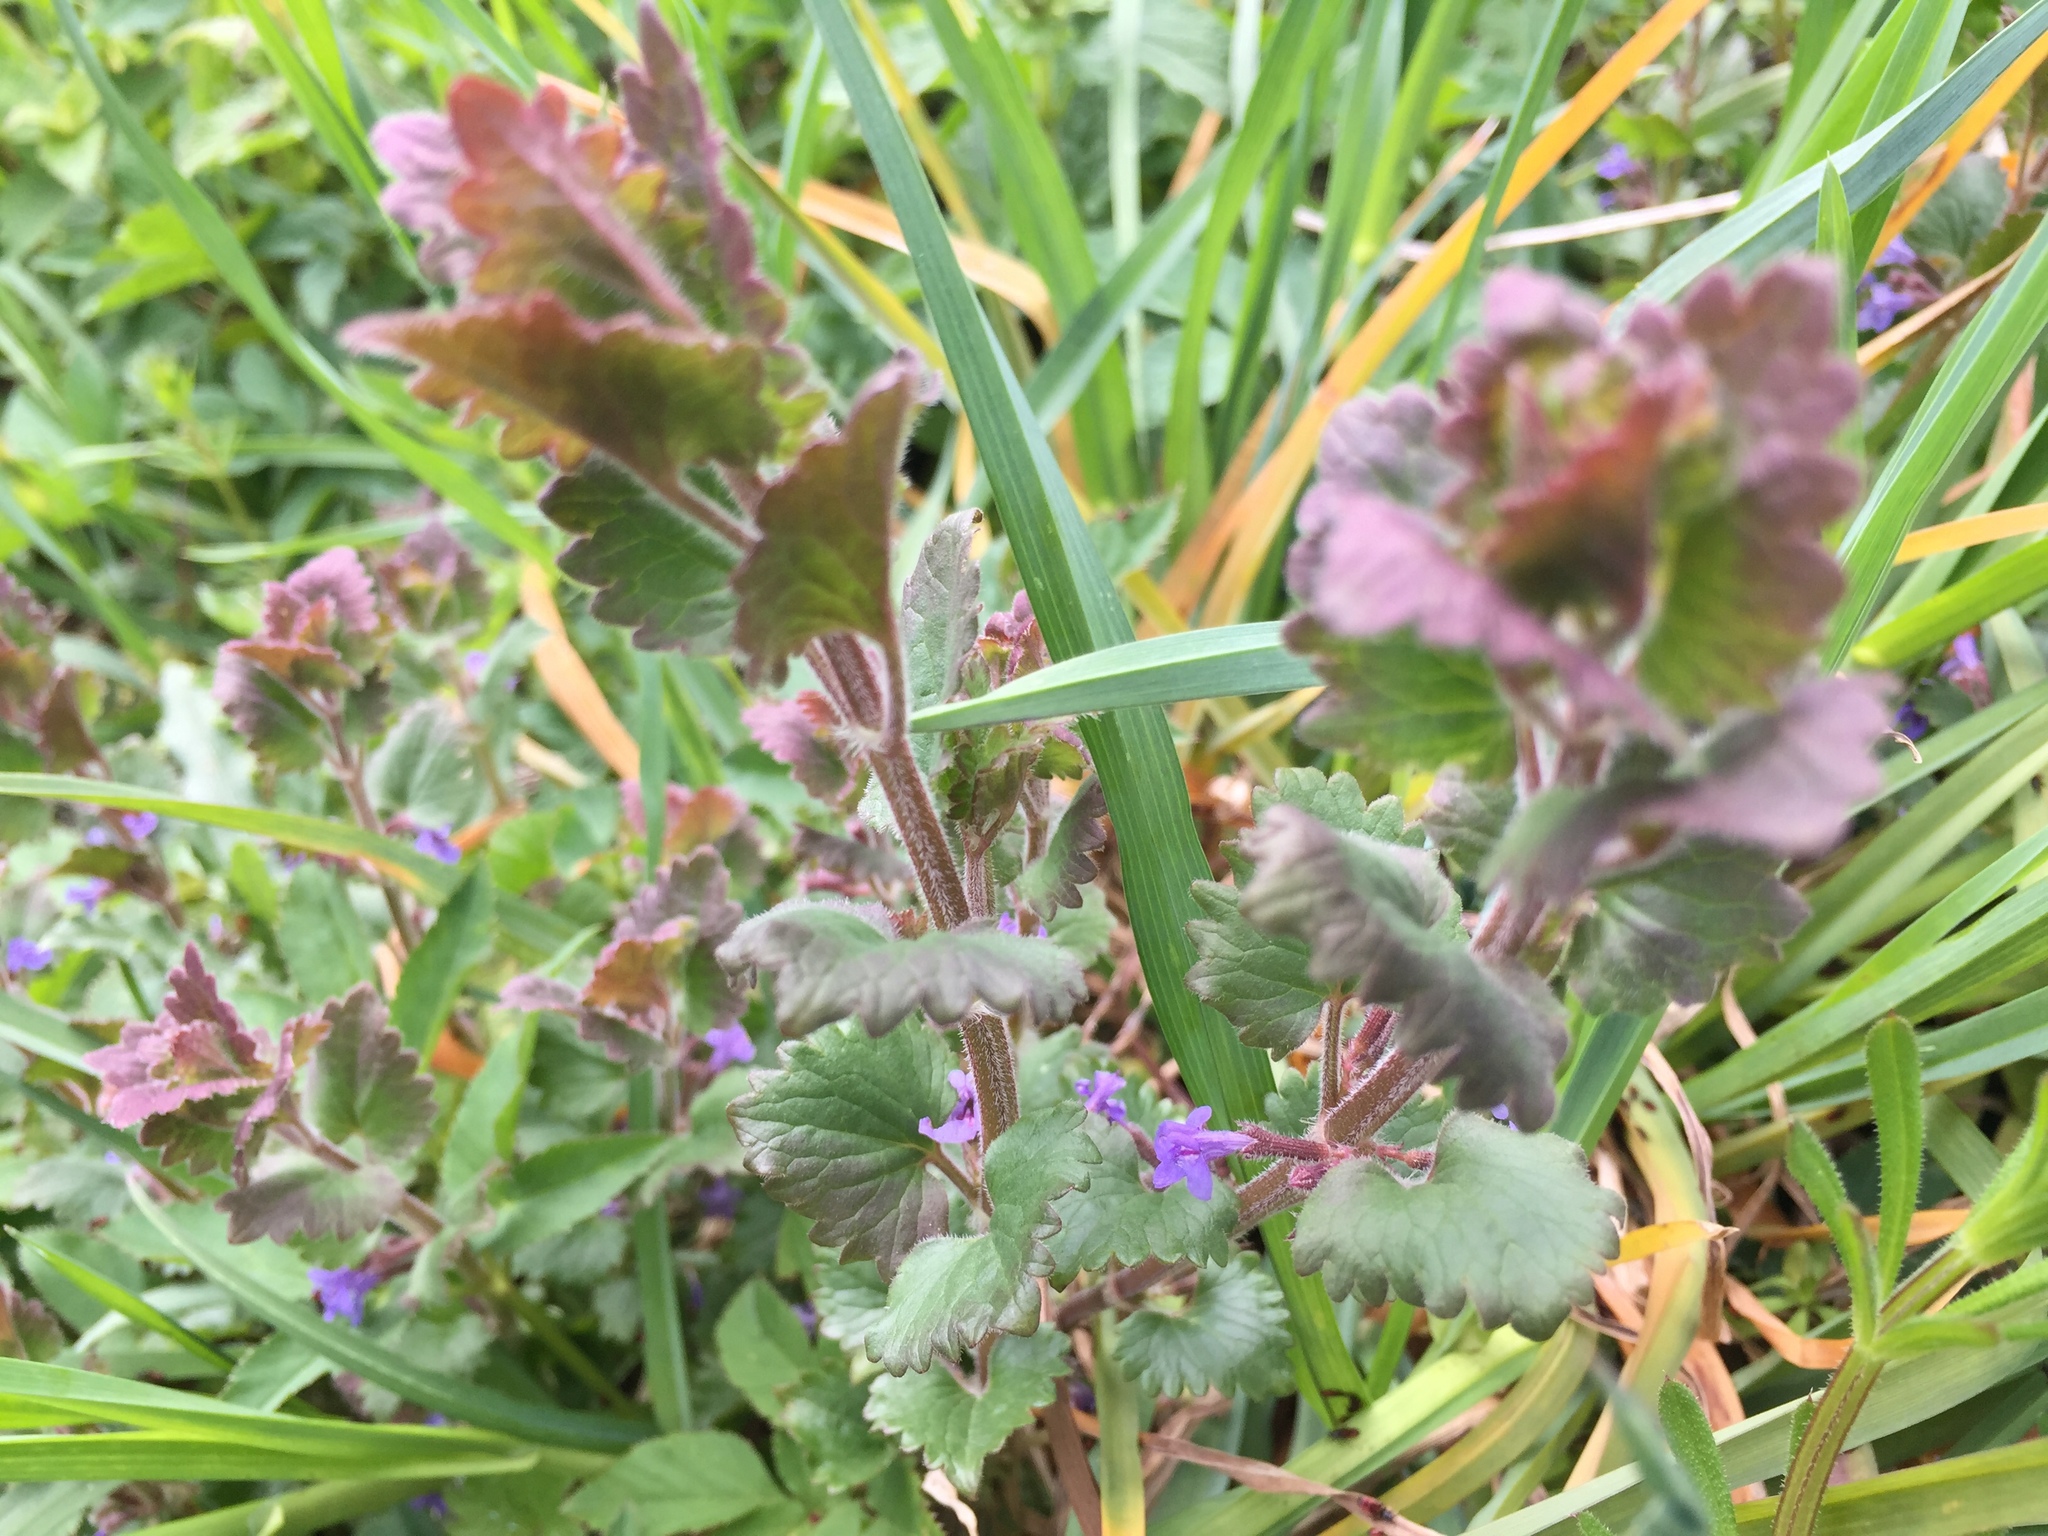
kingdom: Plantae
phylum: Tracheophyta
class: Magnoliopsida
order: Lamiales
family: Lamiaceae
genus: Glechoma
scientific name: Glechoma hederacea
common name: Ground ivy
